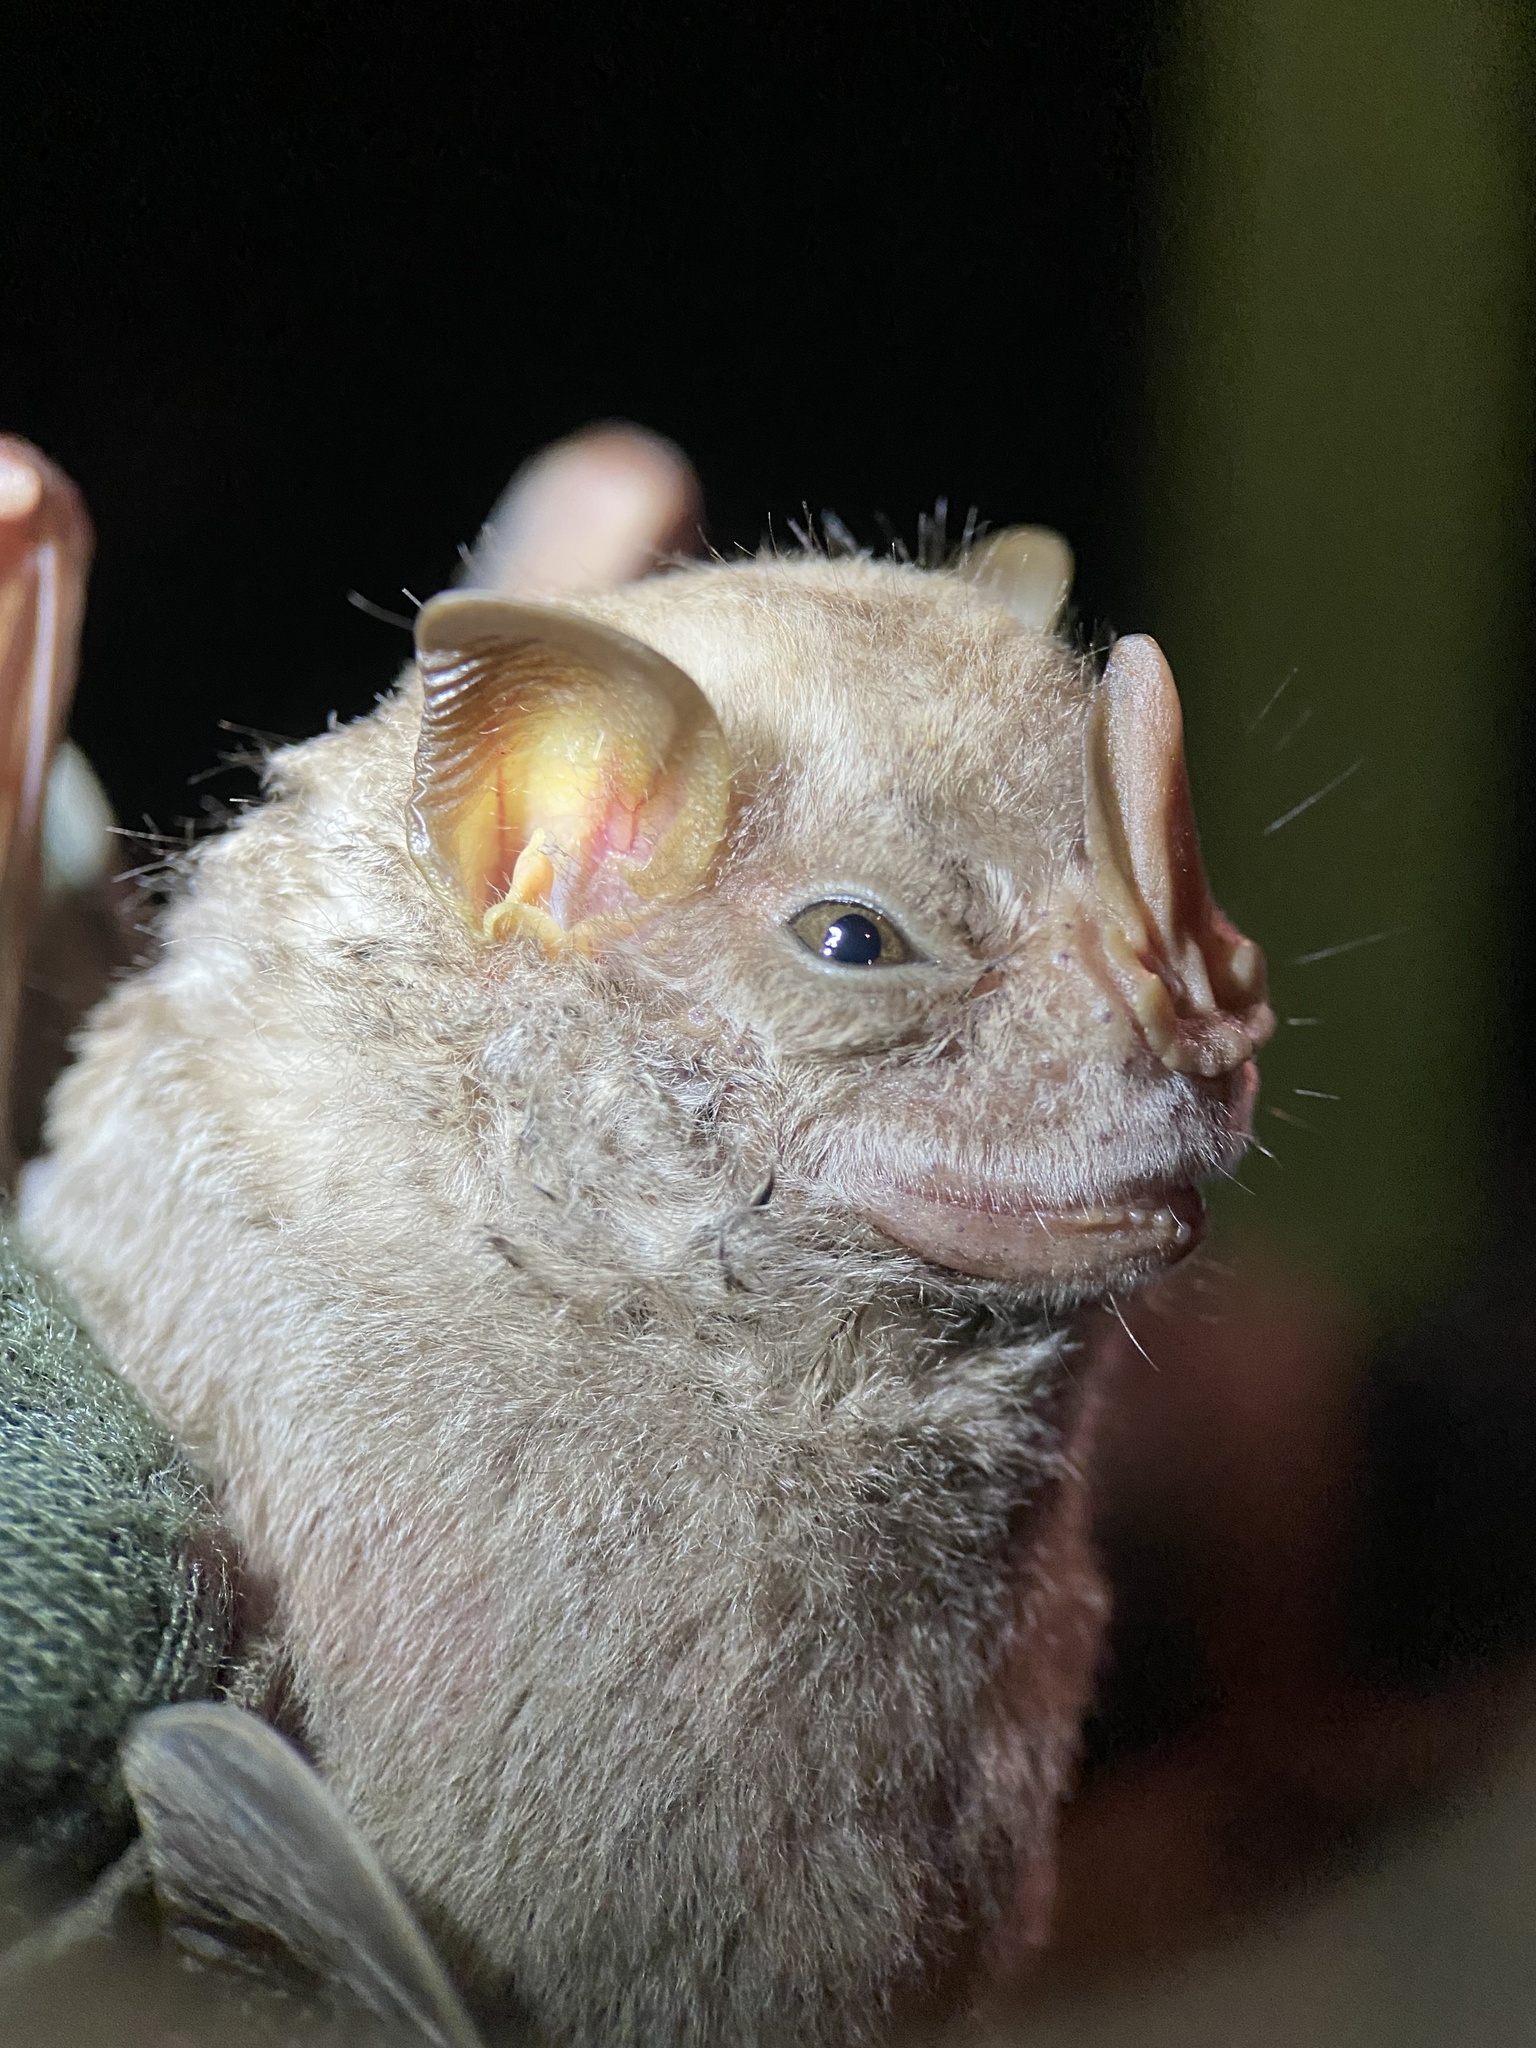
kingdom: Animalia
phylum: Chordata
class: Mammalia
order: Chiroptera
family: Phyllostomidae
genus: Chiroderma
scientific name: Chiroderma villosum
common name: Hairy big-eyed bat
